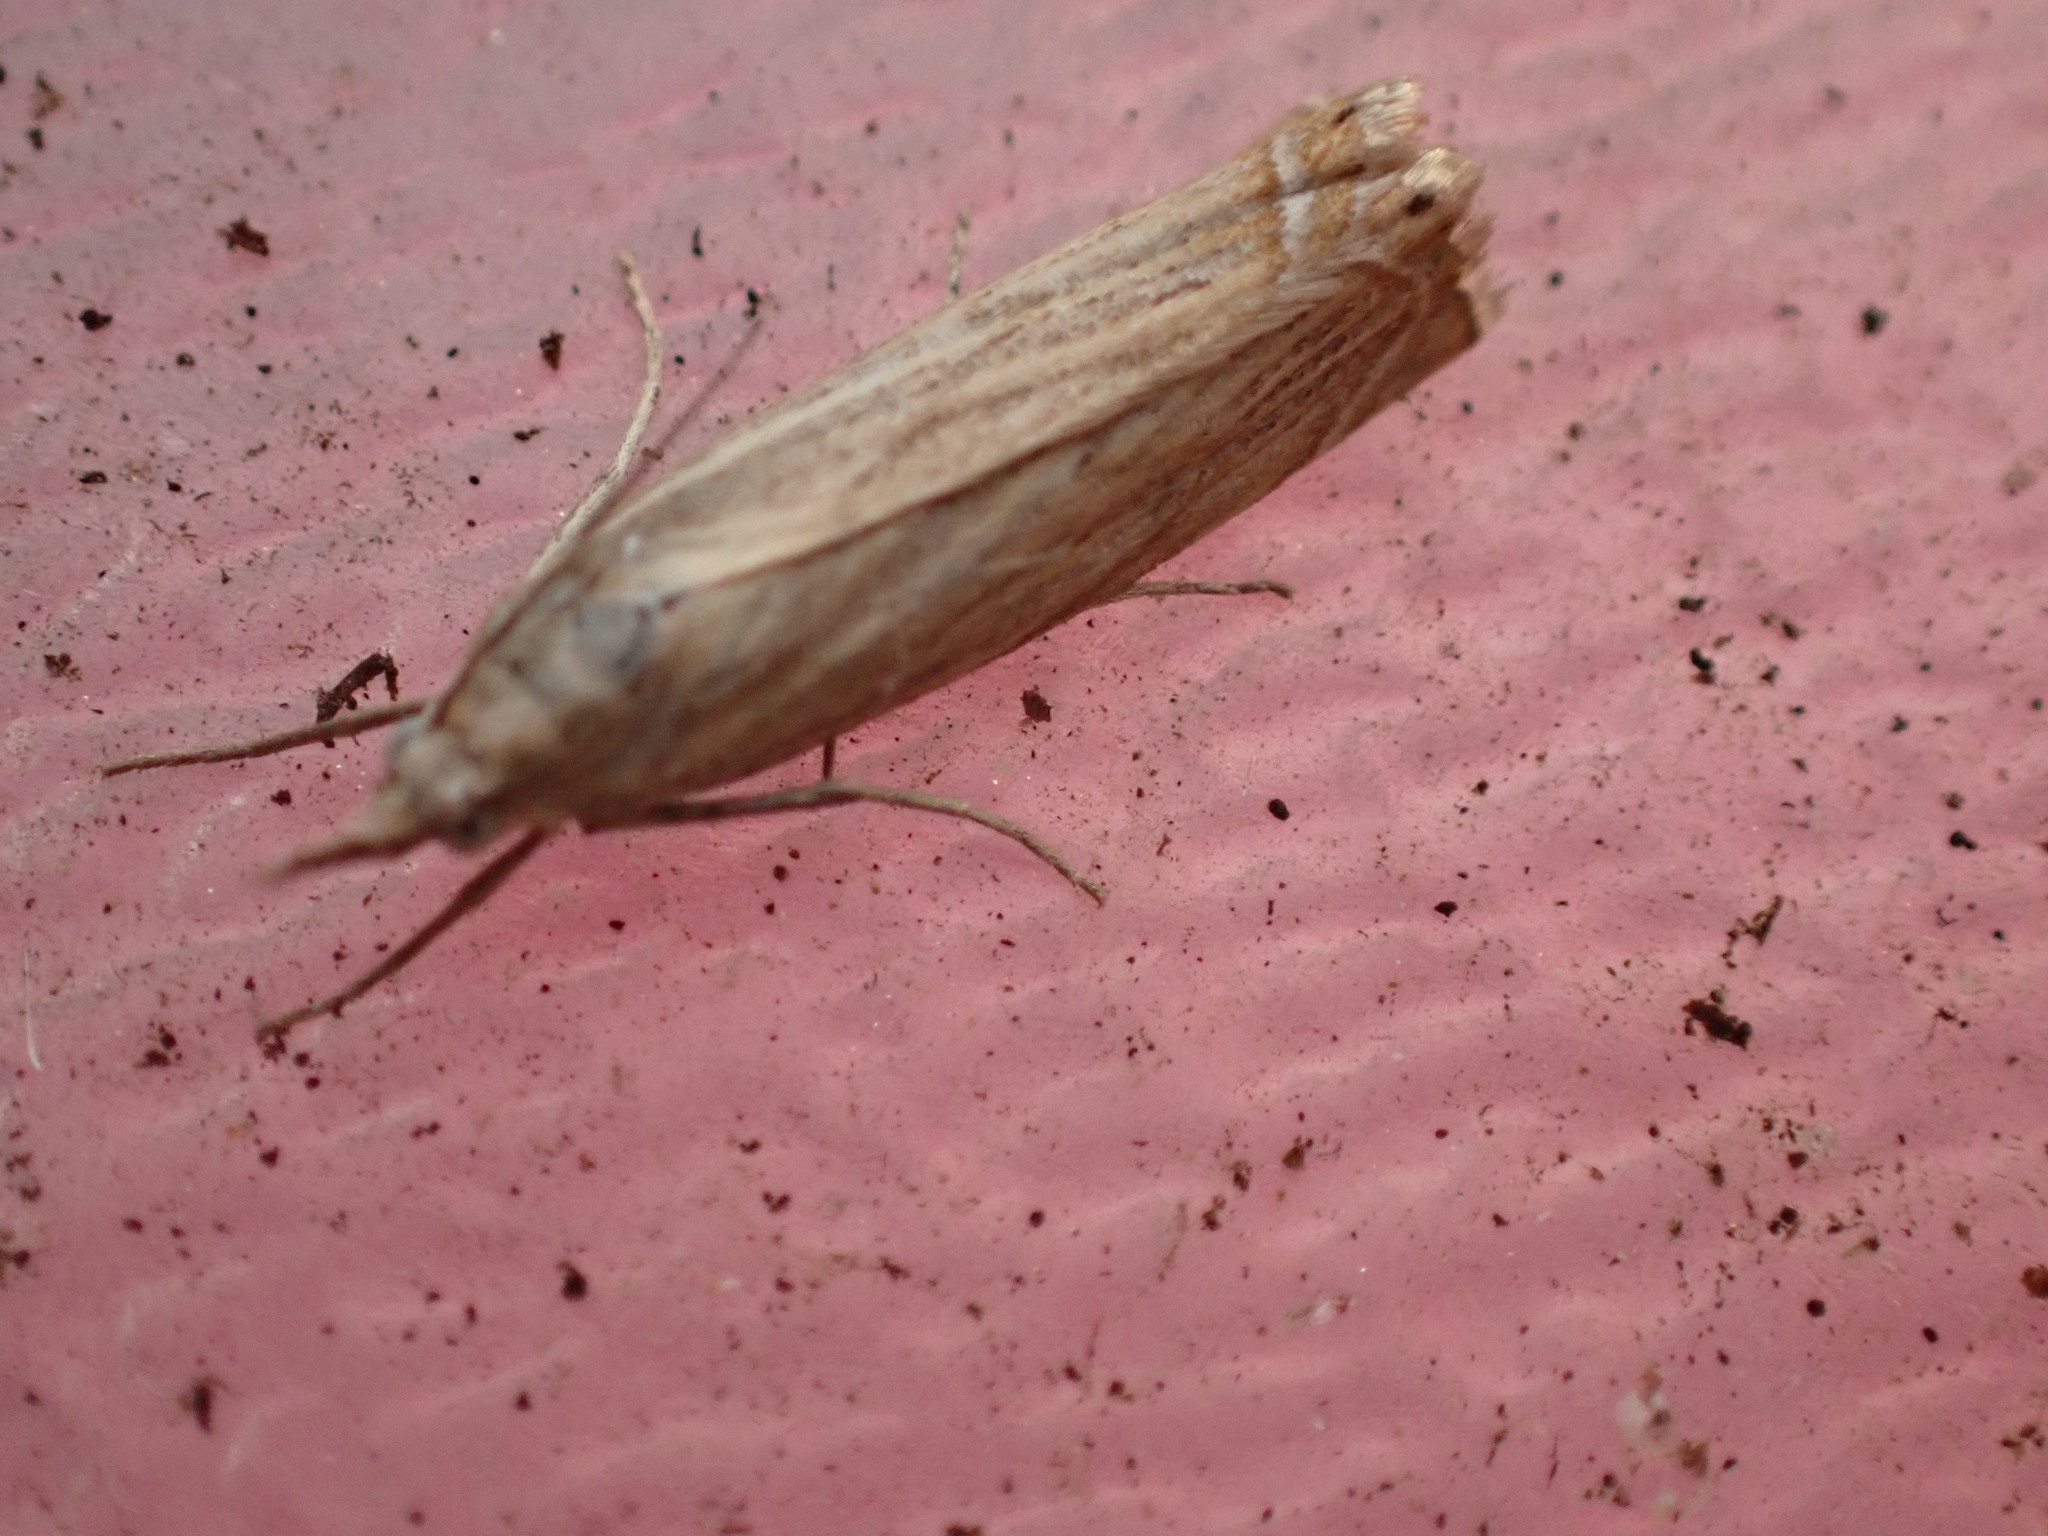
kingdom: Animalia
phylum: Arthropoda
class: Insecta
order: Lepidoptera
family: Crambidae
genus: Chrysoteuchia
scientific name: Chrysoteuchia culmella
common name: Garden grass-veneer
